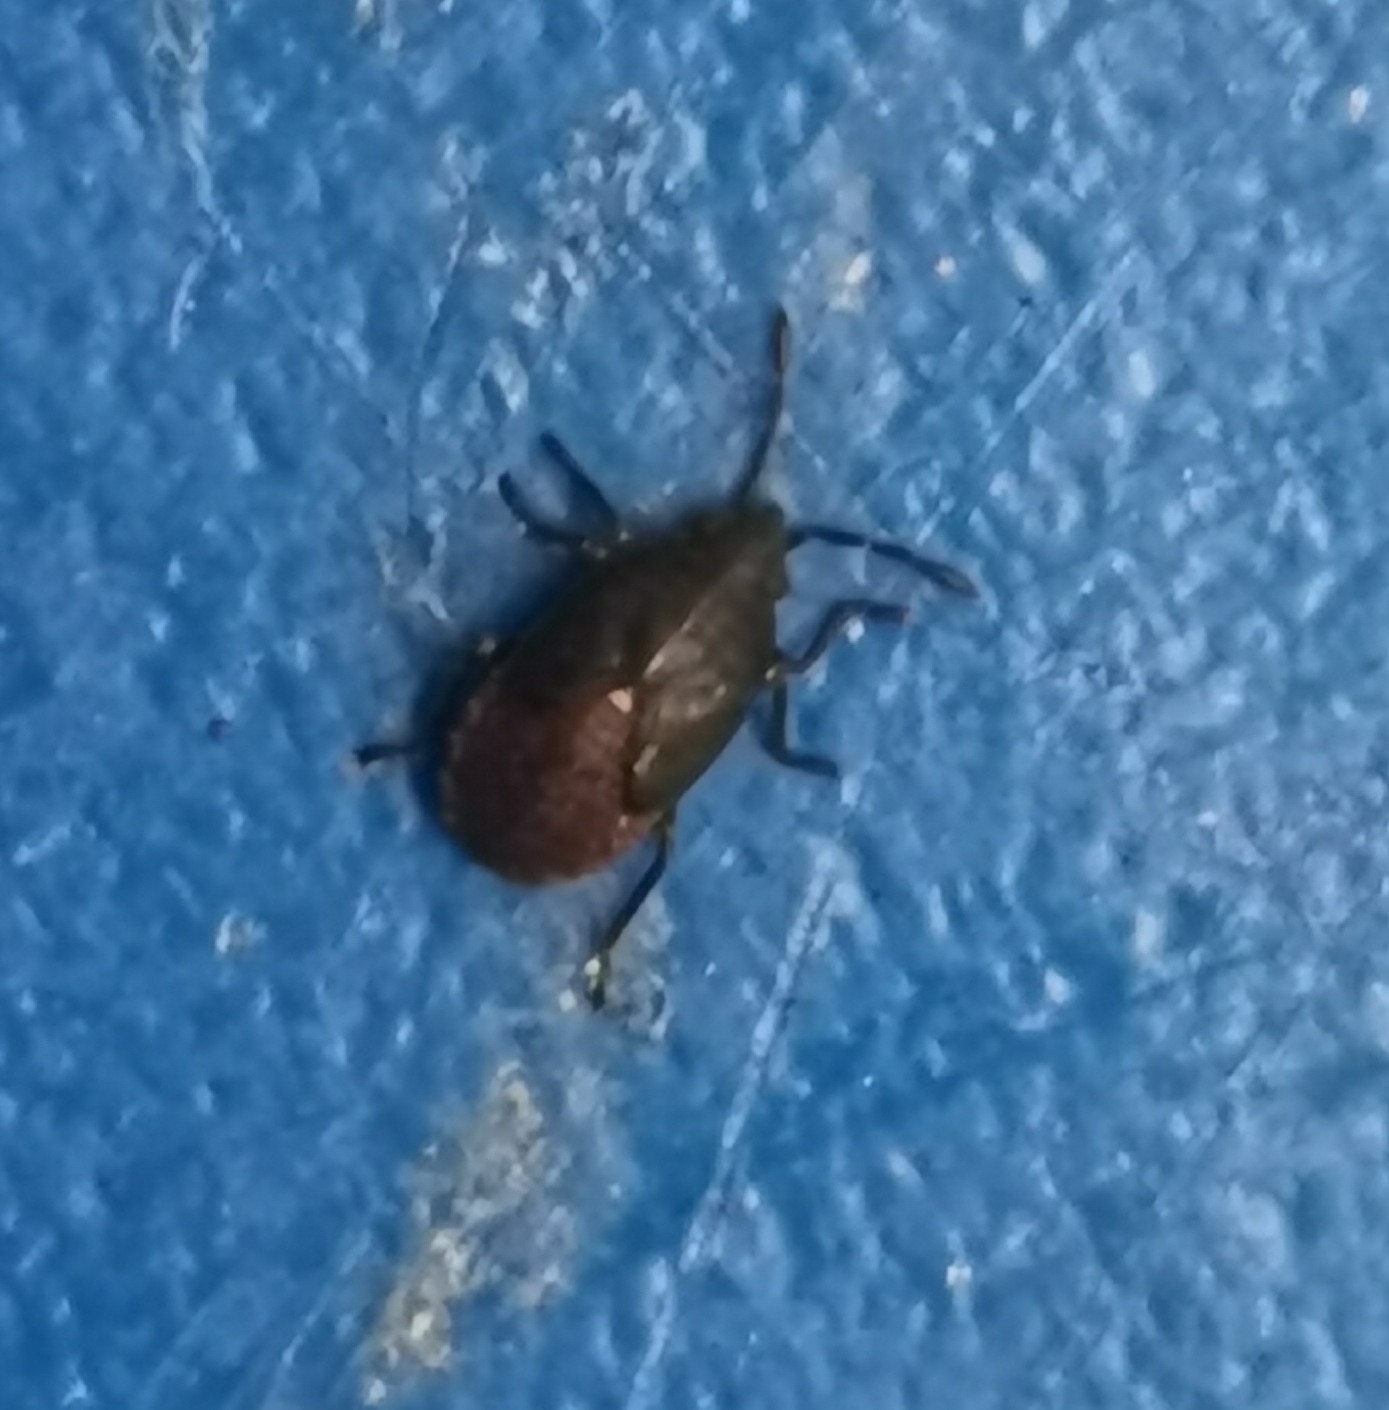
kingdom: Animalia
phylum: Arthropoda
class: Insecta
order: Hemiptera
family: Lygaeidae
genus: Kleidocerys
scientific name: Kleidocerys resedae
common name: Birch catkin bug
